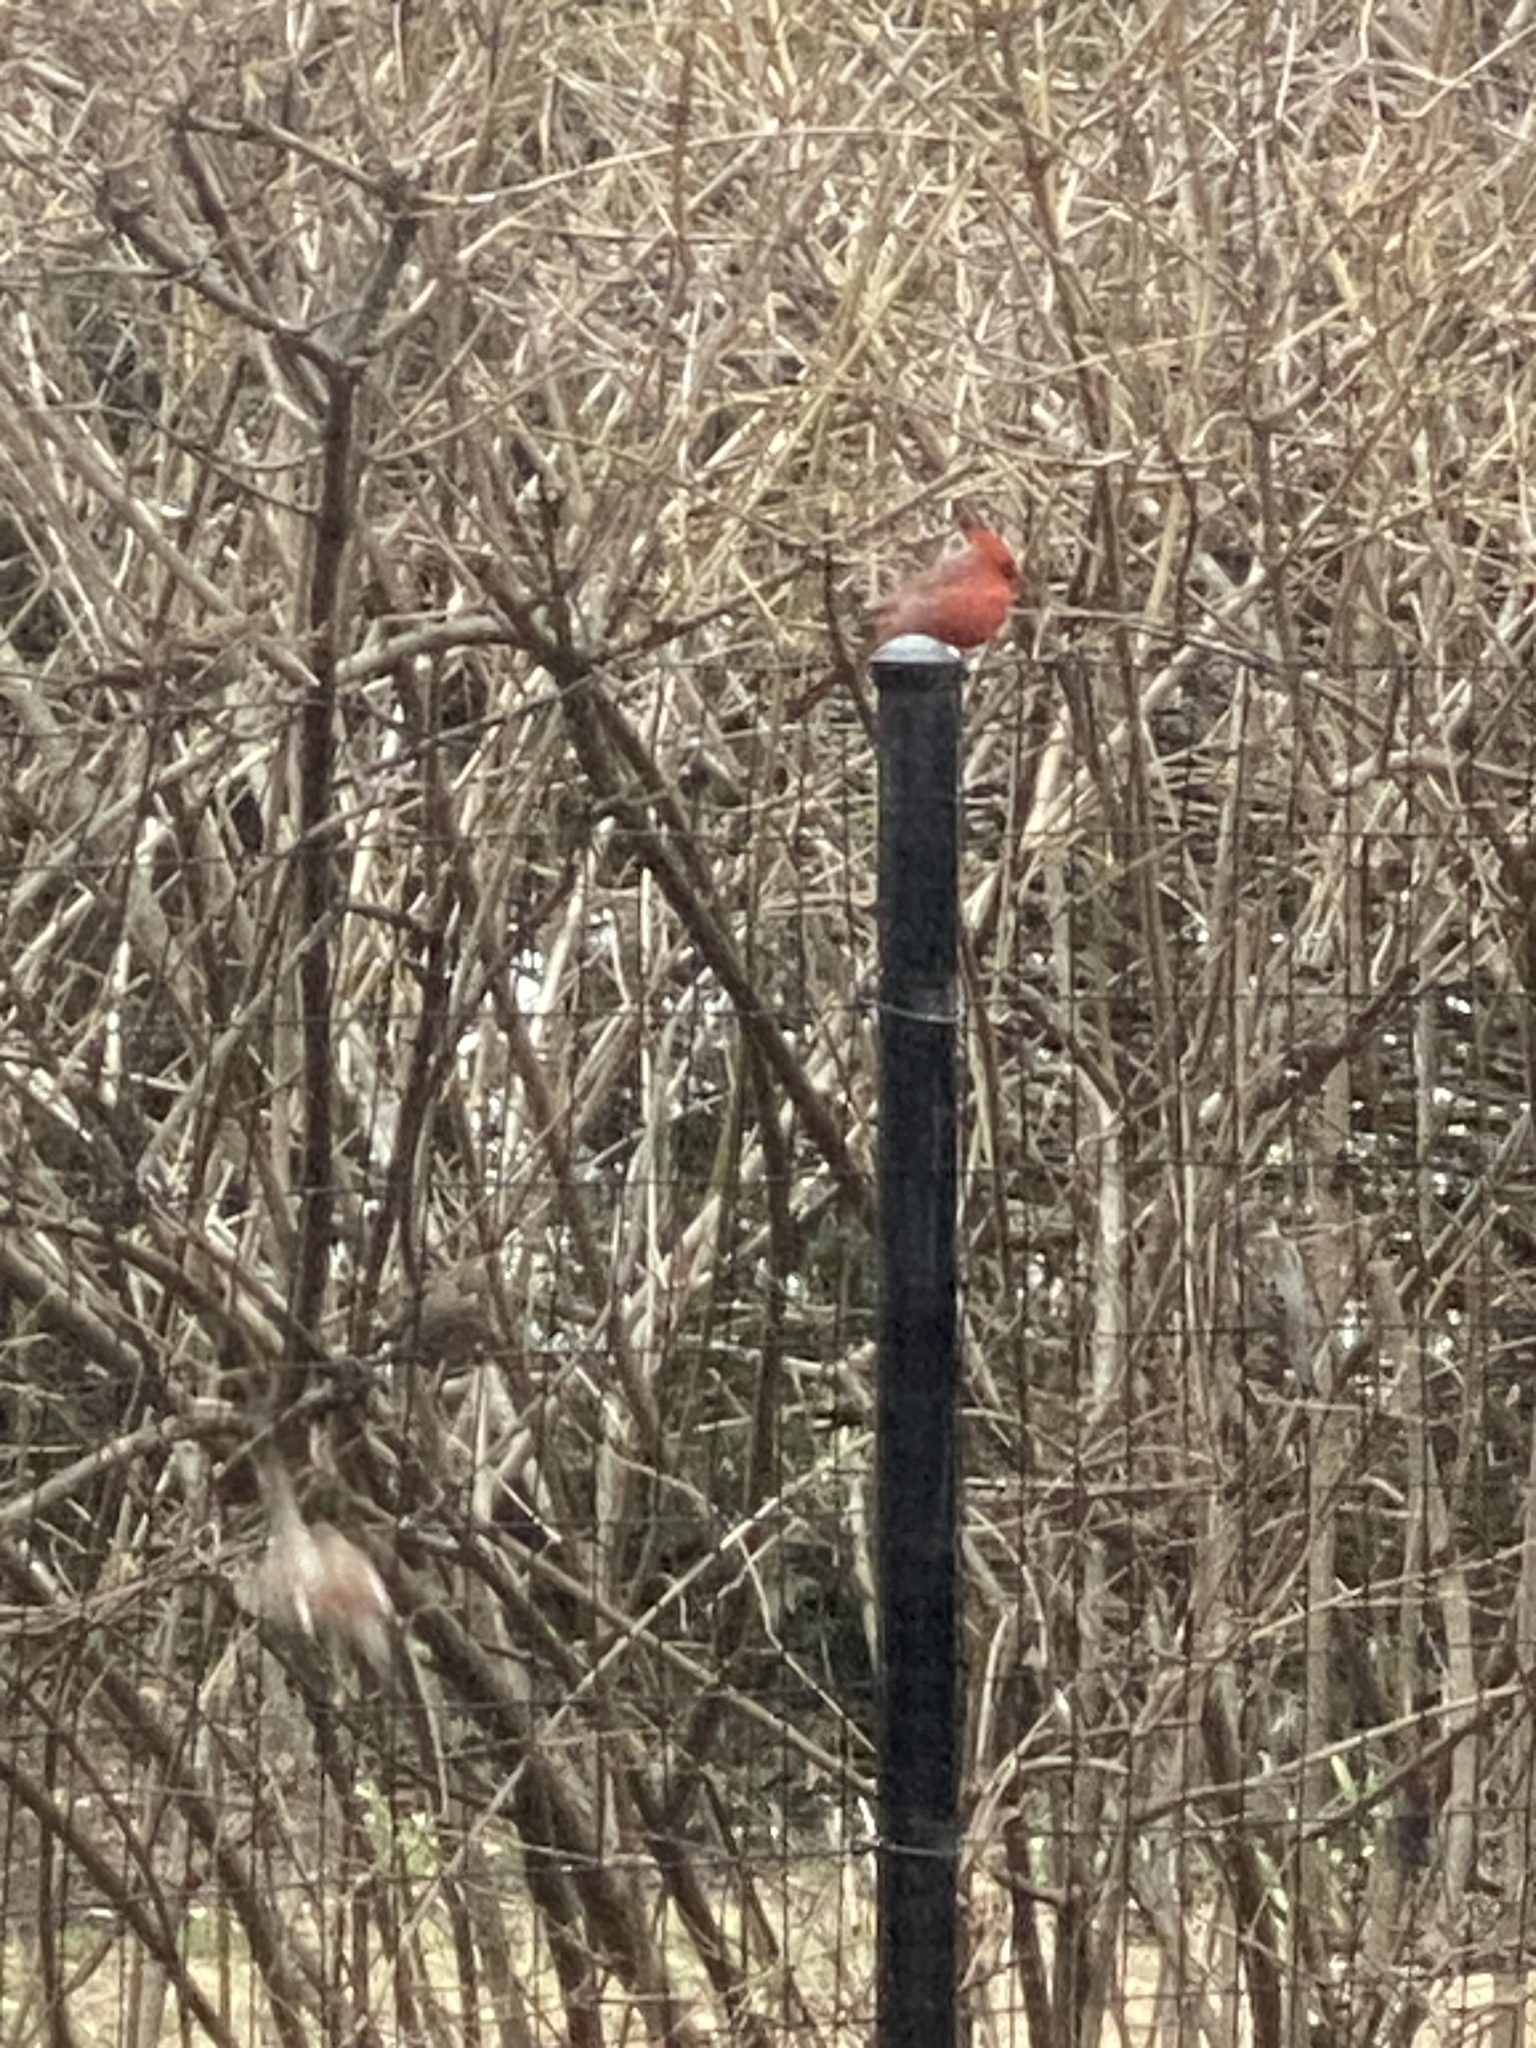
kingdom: Animalia
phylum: Chordata
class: Aves
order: Passeriformes
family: Cardinalidae
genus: Cardinalis
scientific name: Cardinalis cardinalis
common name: Northern cardinal
